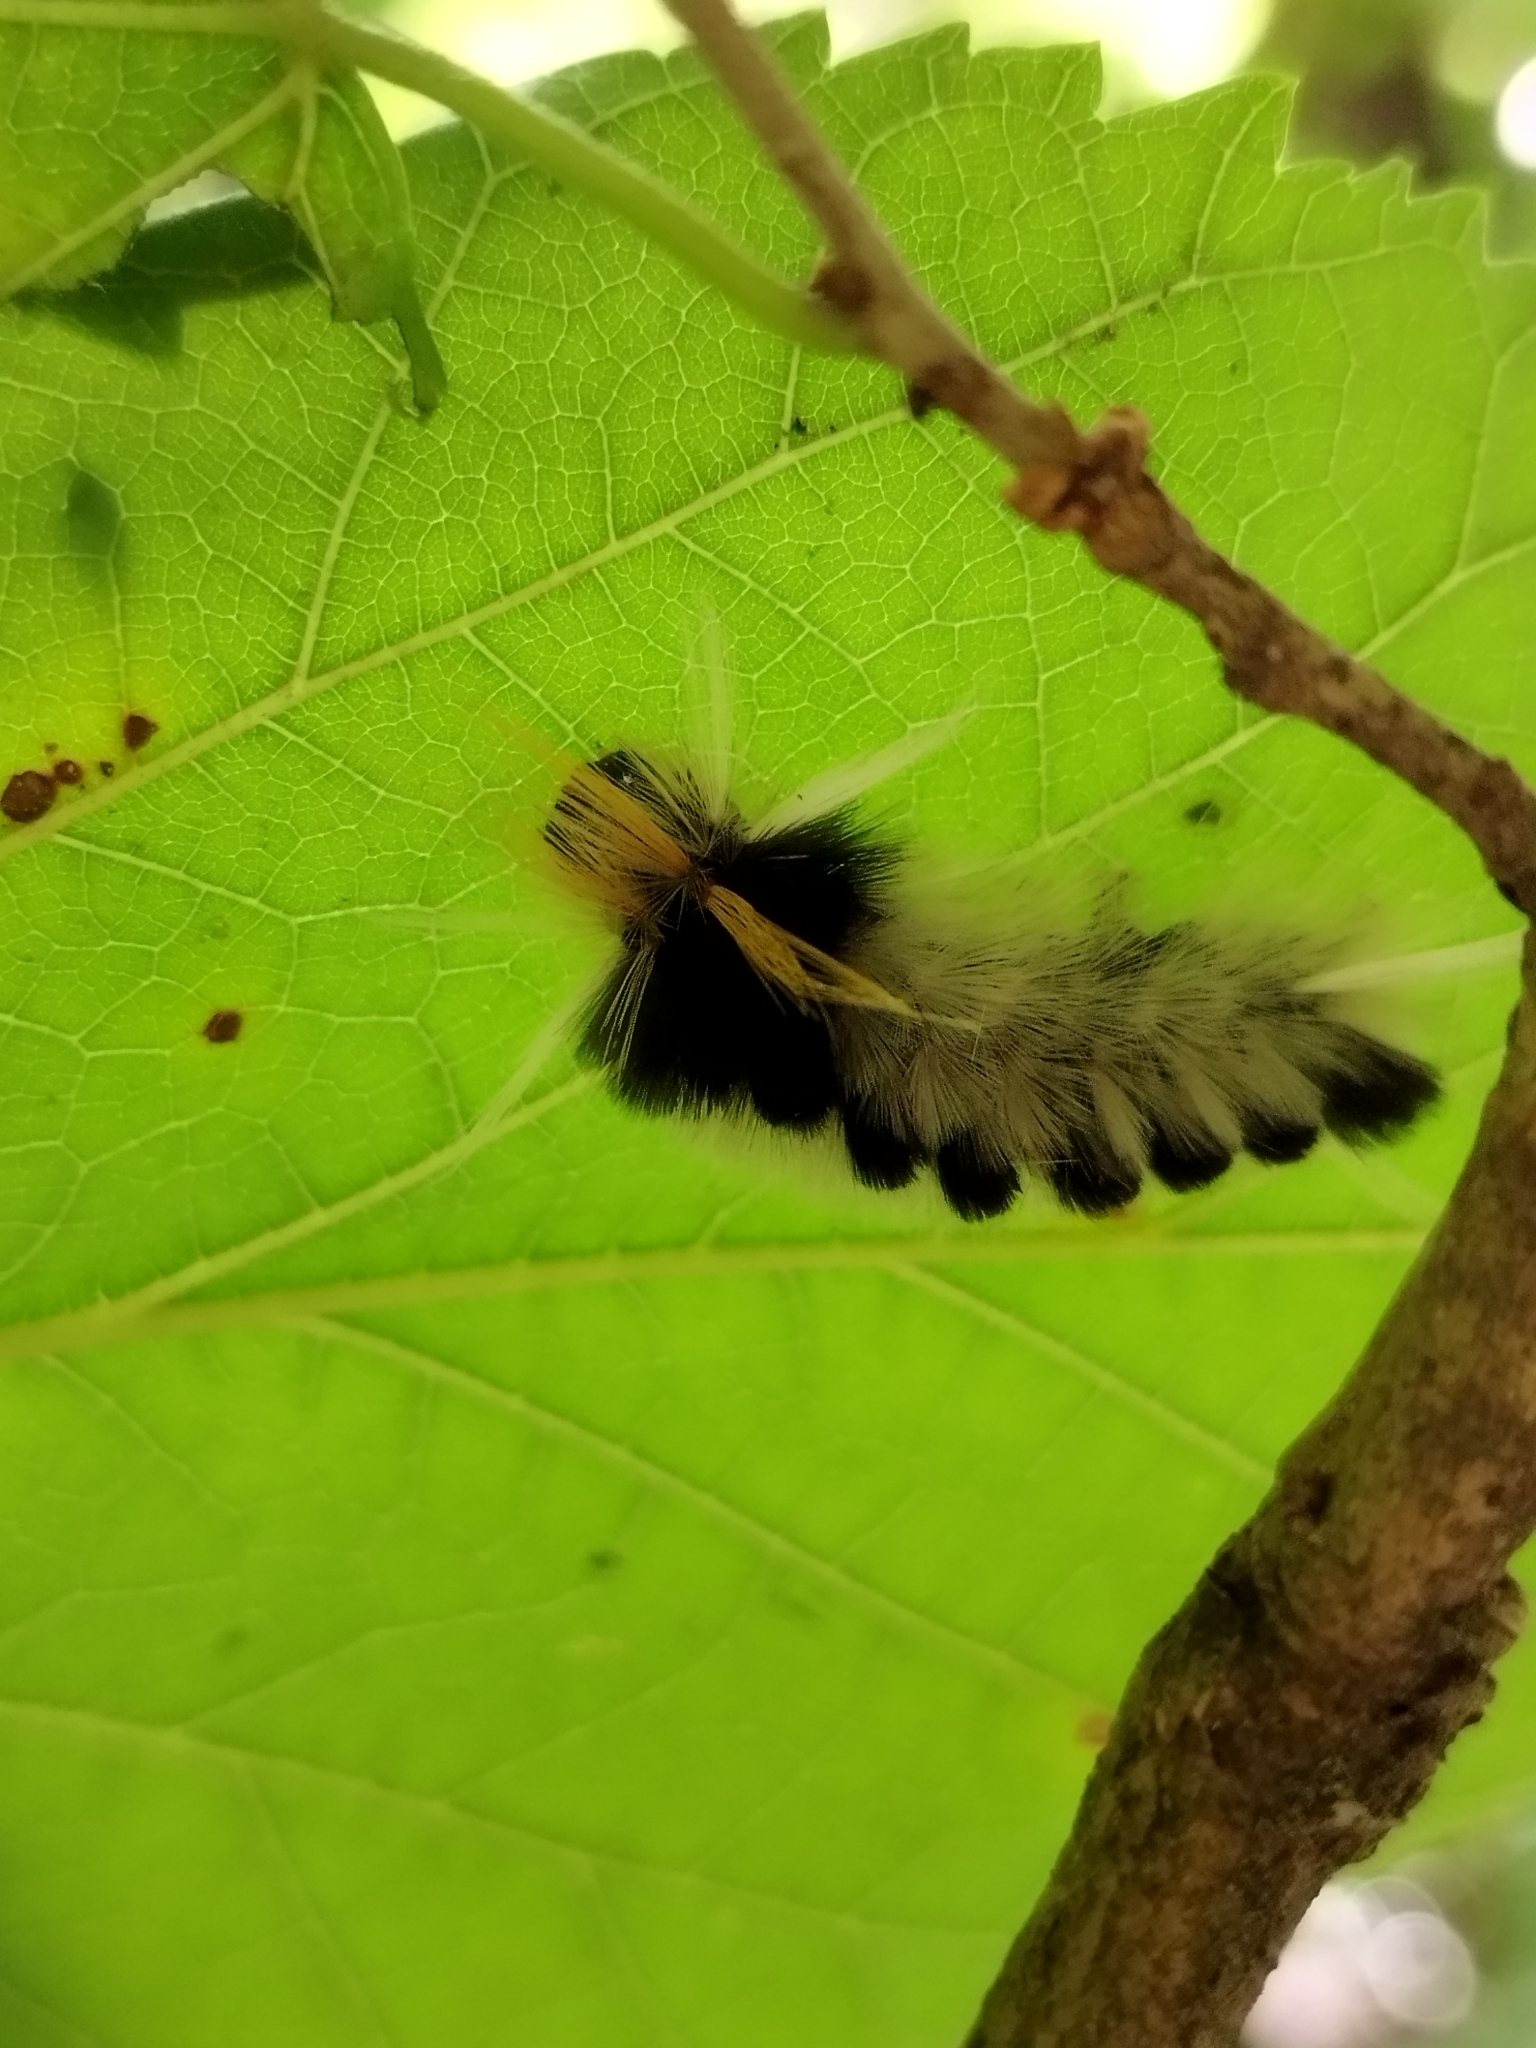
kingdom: Animalia
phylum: Arthropoda
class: Insecta
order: Lepidoptera
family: Erebidae
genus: Halysidota
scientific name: Halysidota ruscheweyhi
